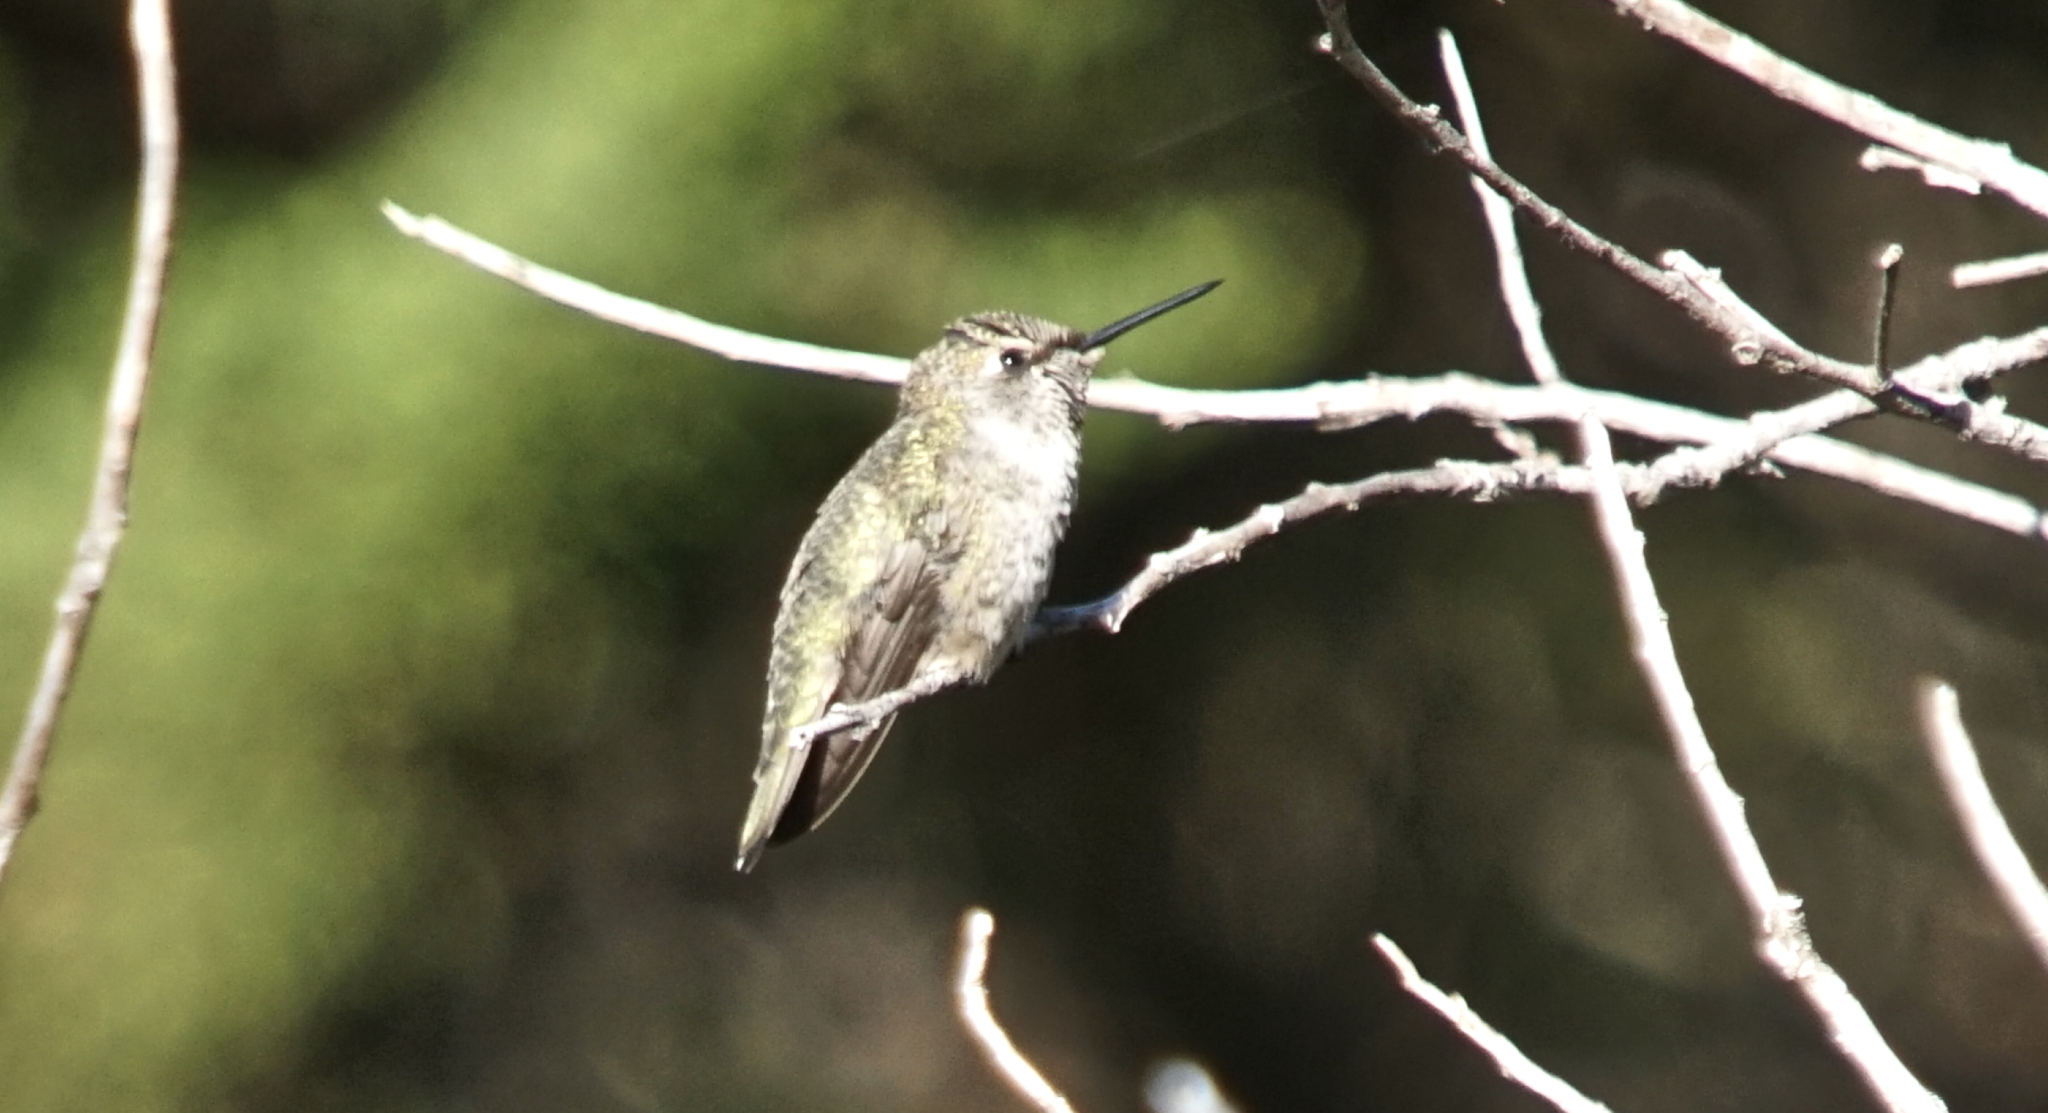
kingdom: Animalia
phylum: Chordata
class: Aves
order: Apodiformes
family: Trochilidae
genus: Calypte
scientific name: Calypte anna
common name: Anna's hummingbird
